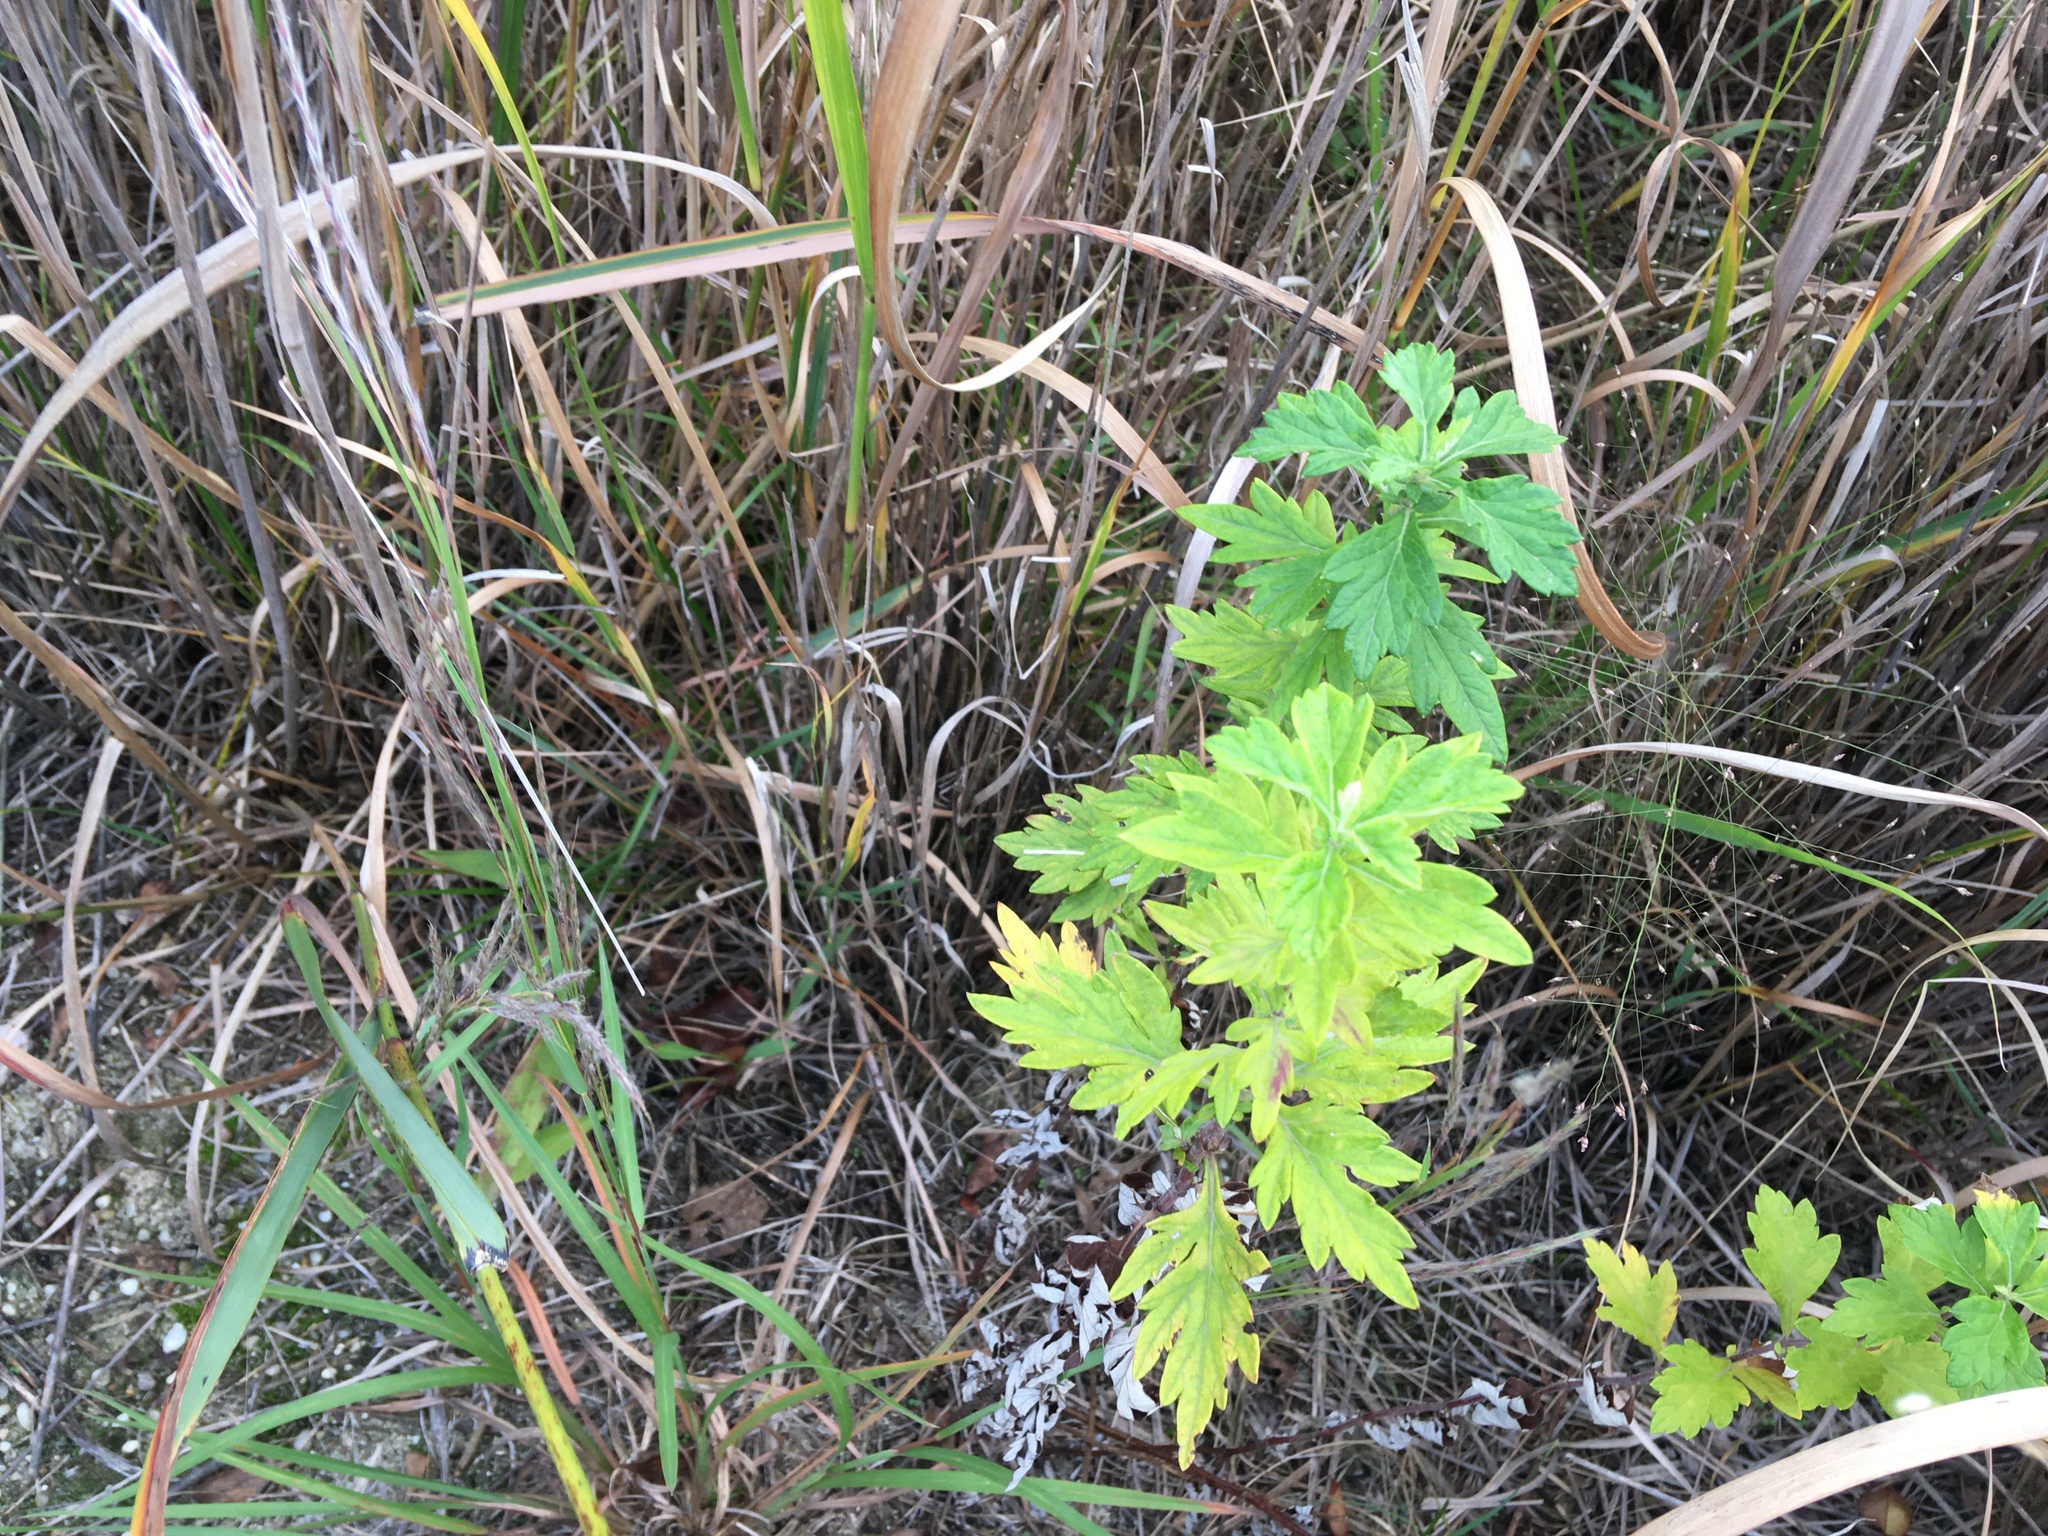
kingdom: Plantae
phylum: Tracheophyta
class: Magnoliopsida
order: Asterales
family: Asteraceae
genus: Artemisia
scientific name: Artemisia vulgaris
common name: Mugwort
